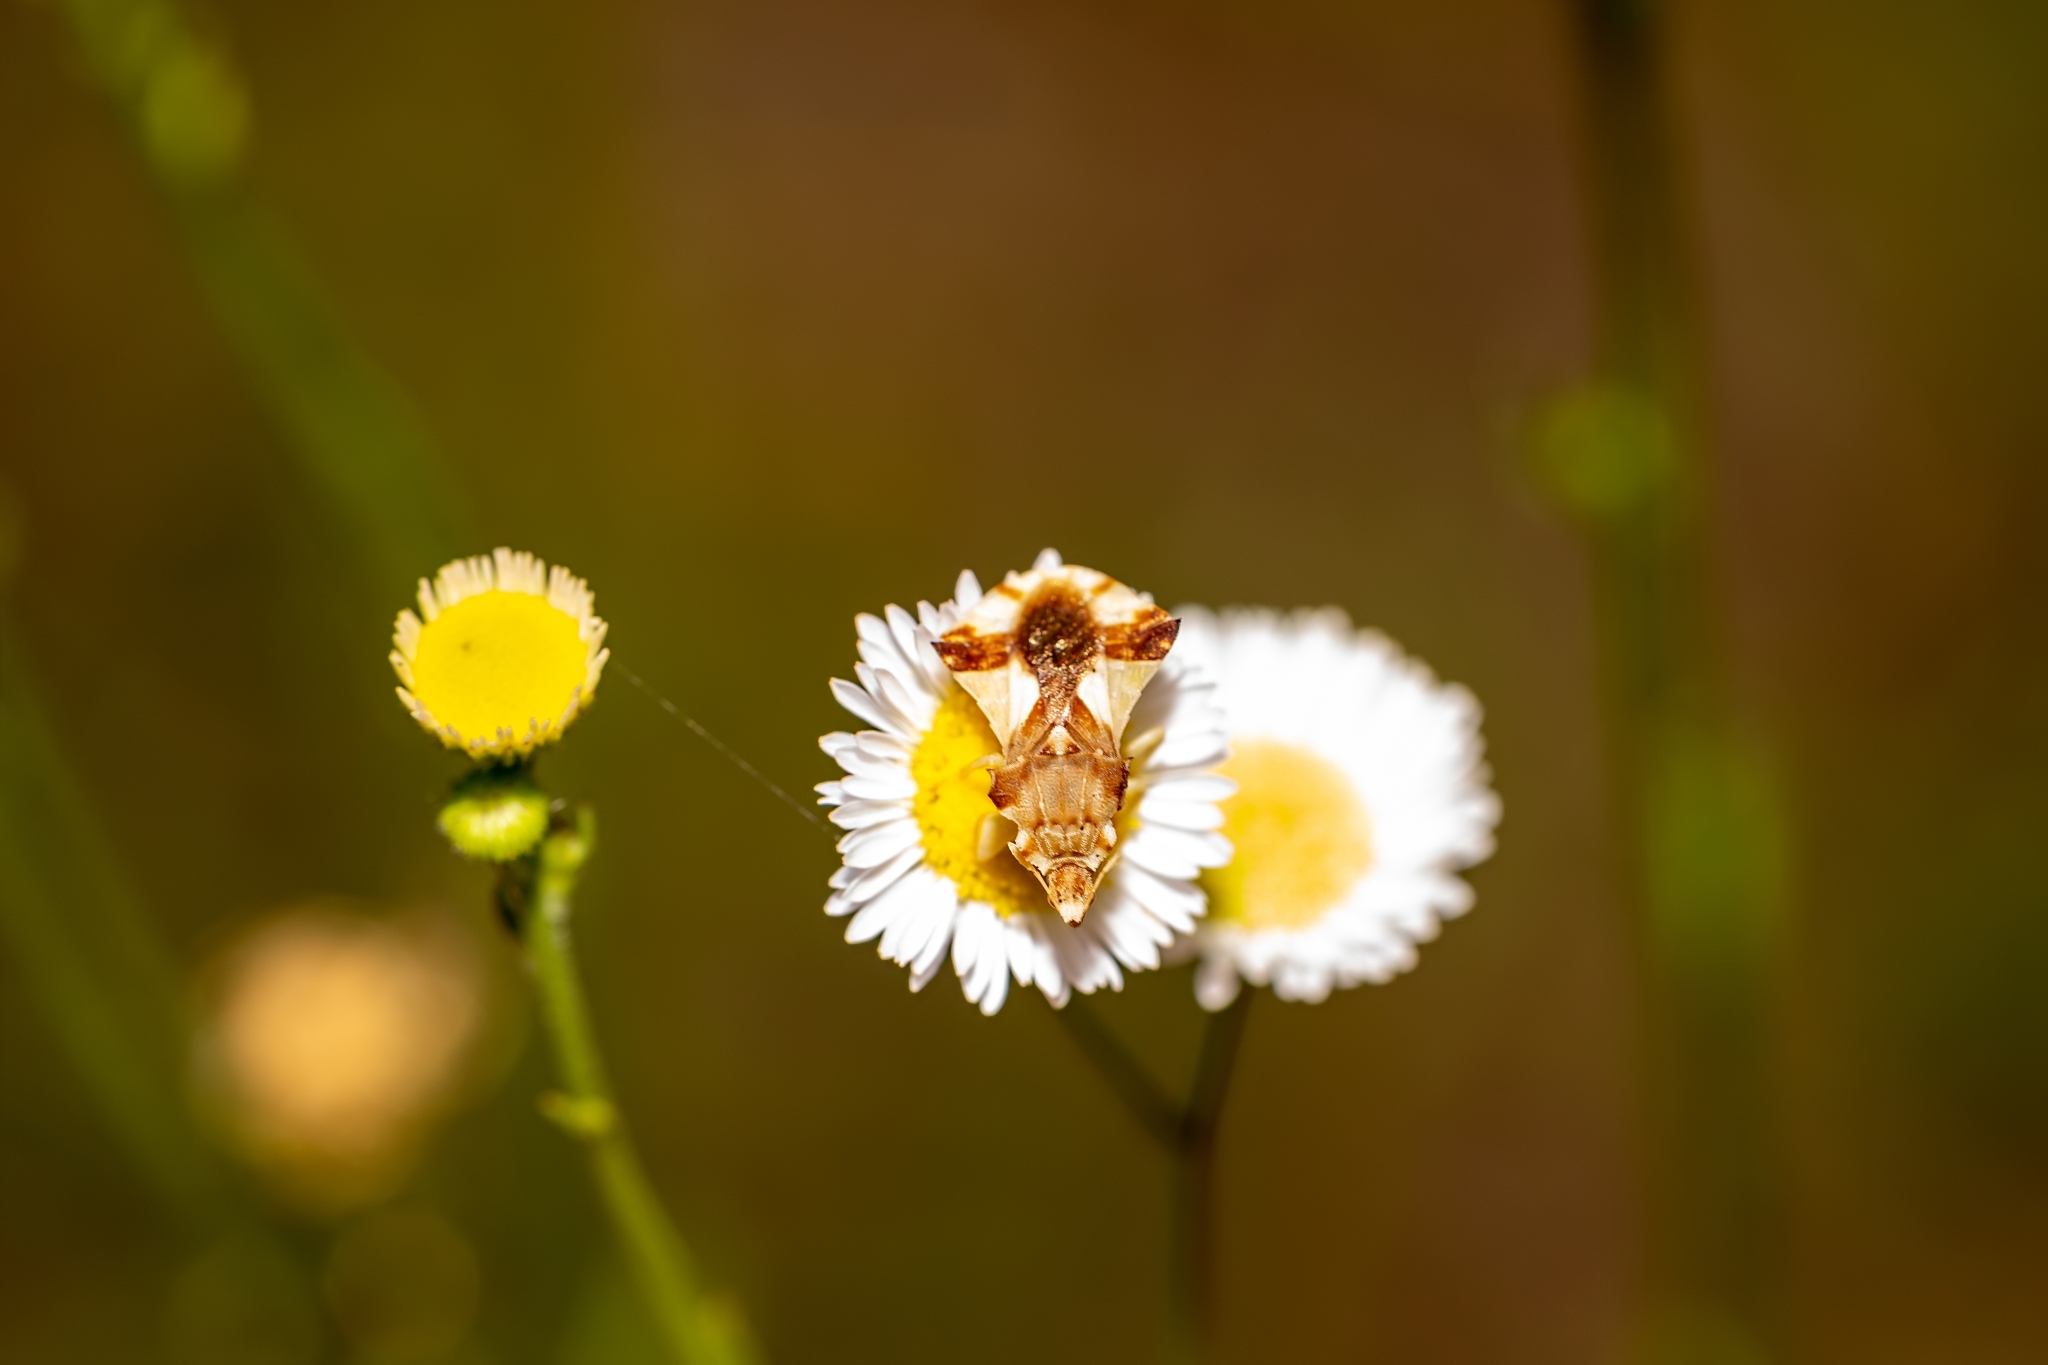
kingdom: Animalia
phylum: Arthropoda
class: Insecta
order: Hemiptera
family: Reduviidae
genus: Phymata
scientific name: Phymata fasciata
